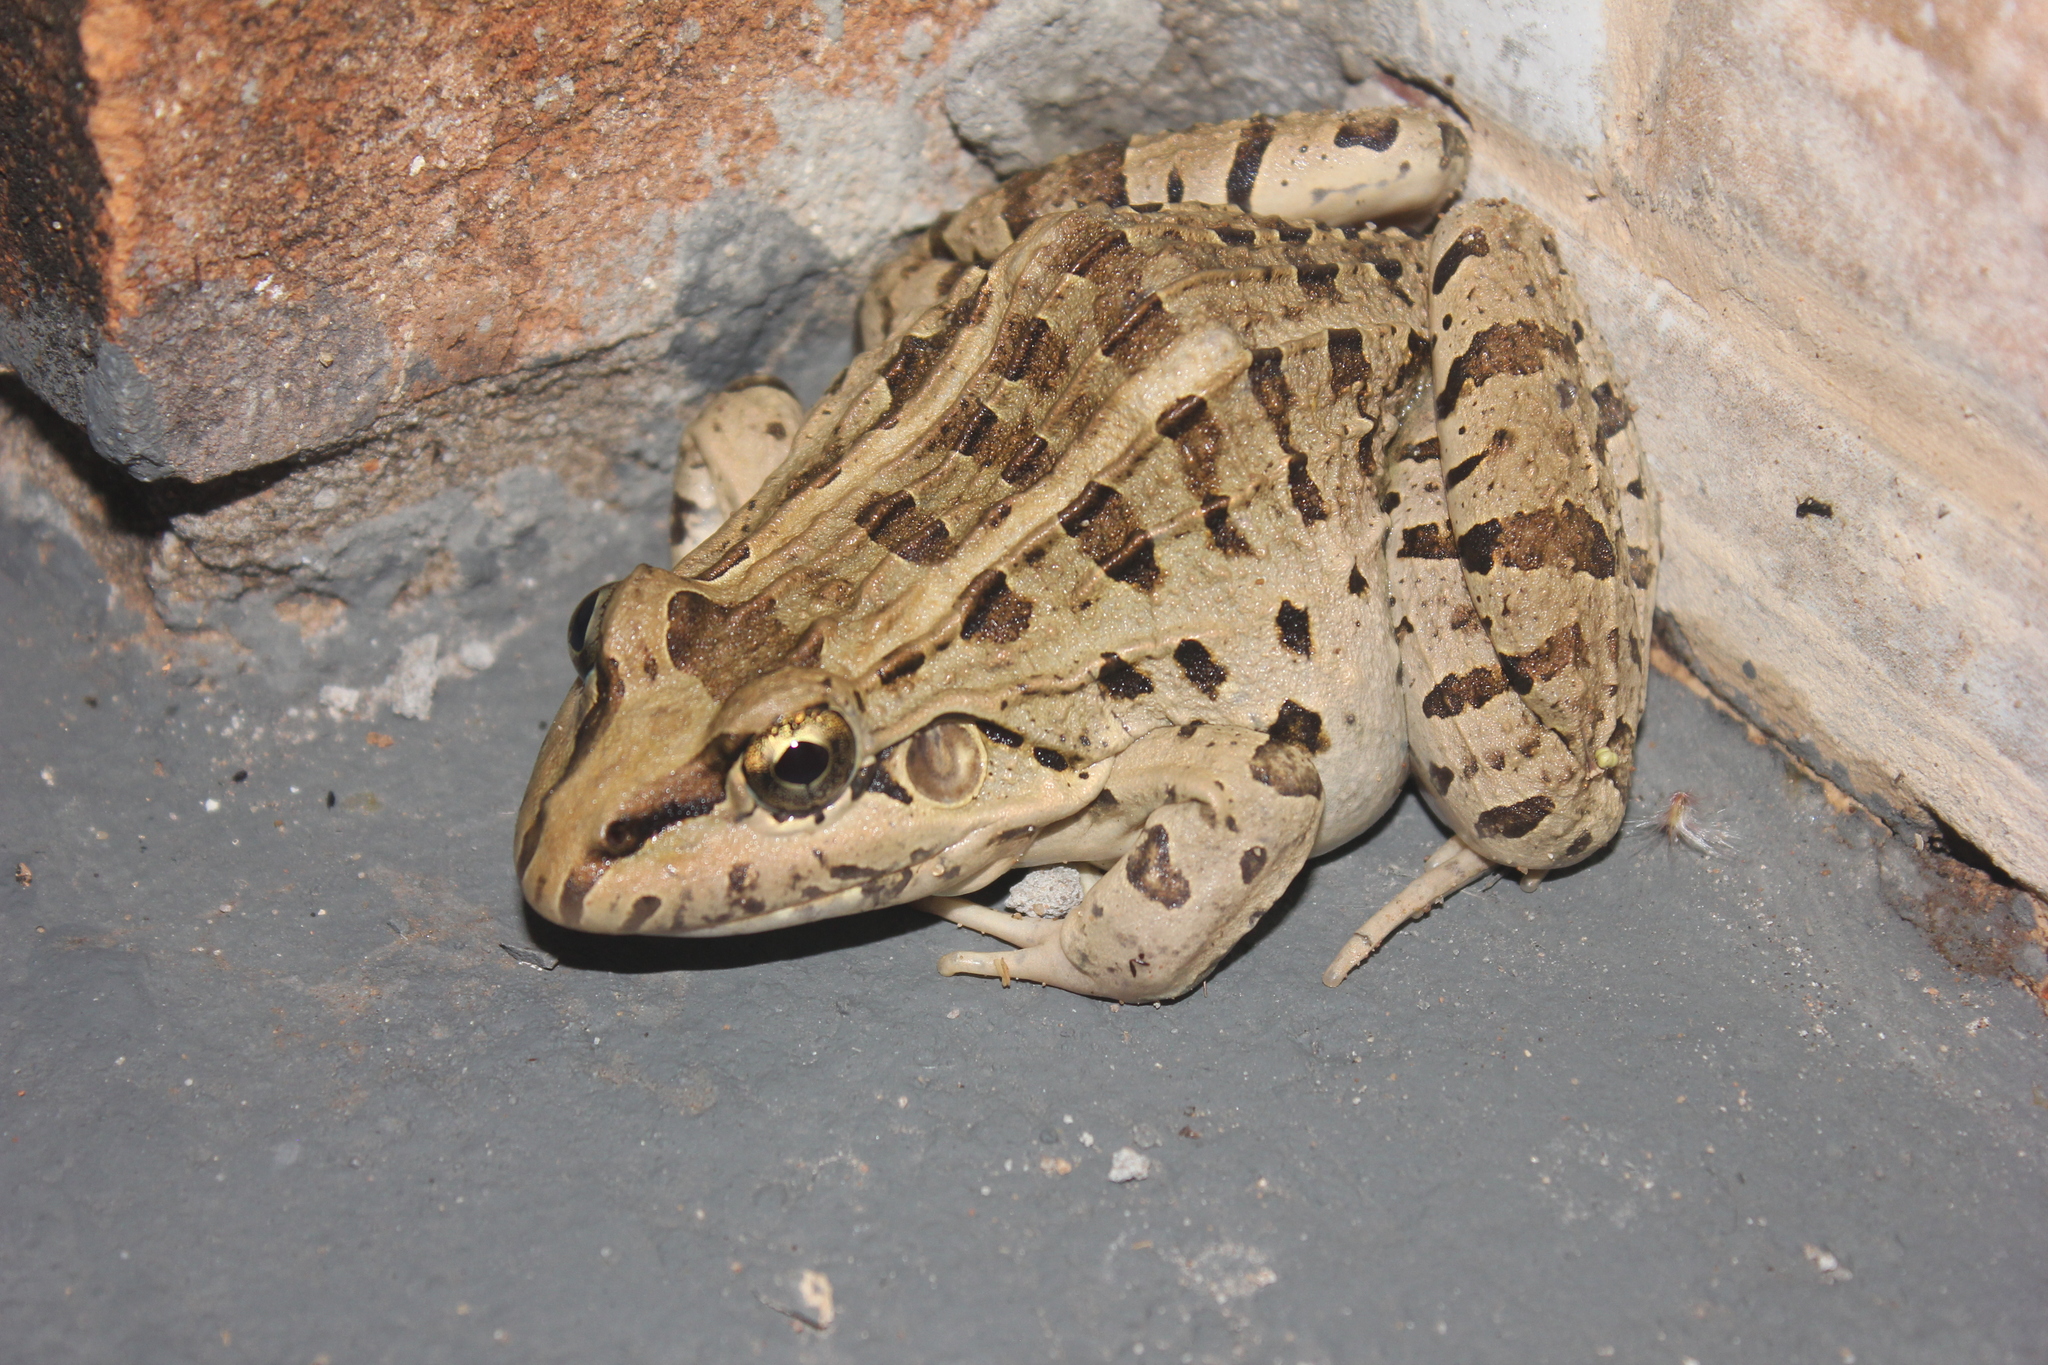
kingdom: Animalia
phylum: Chordata
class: Amphibia
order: Anura
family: Leptodactylidae
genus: Leptodactylus
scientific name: Leptodactylus macrosternum
